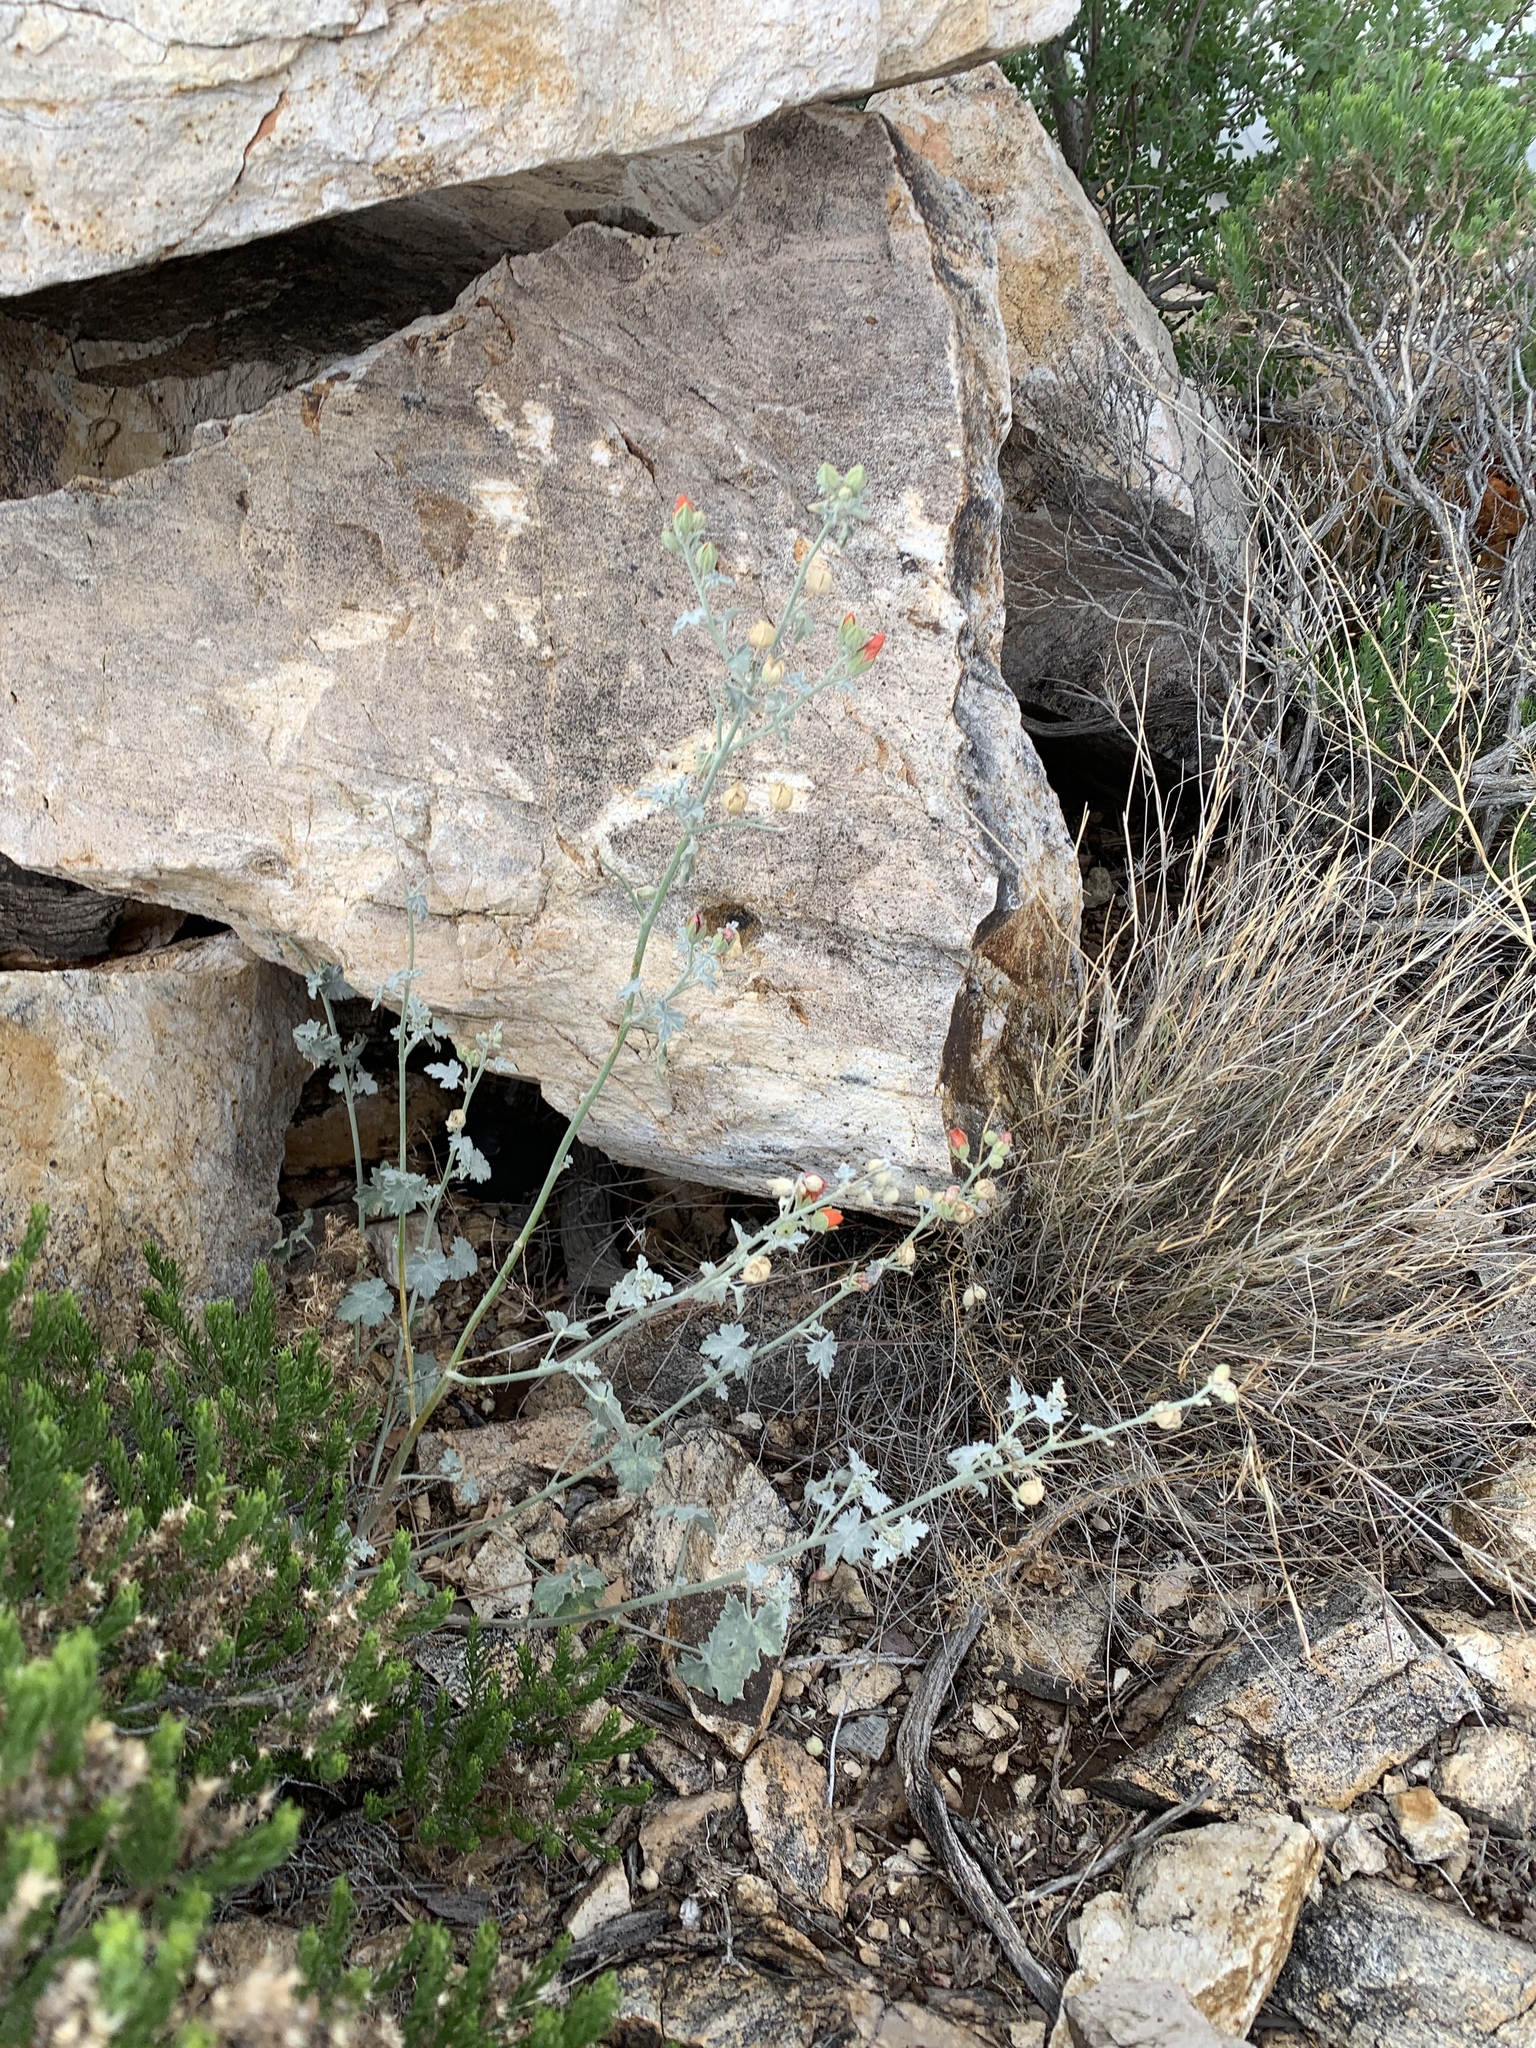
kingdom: Plantae
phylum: Tracheophyta
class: Magnoliopsida
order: Malvales
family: Malvaceae
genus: Sphaeralcea
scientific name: Sphaeralcea hastulata
